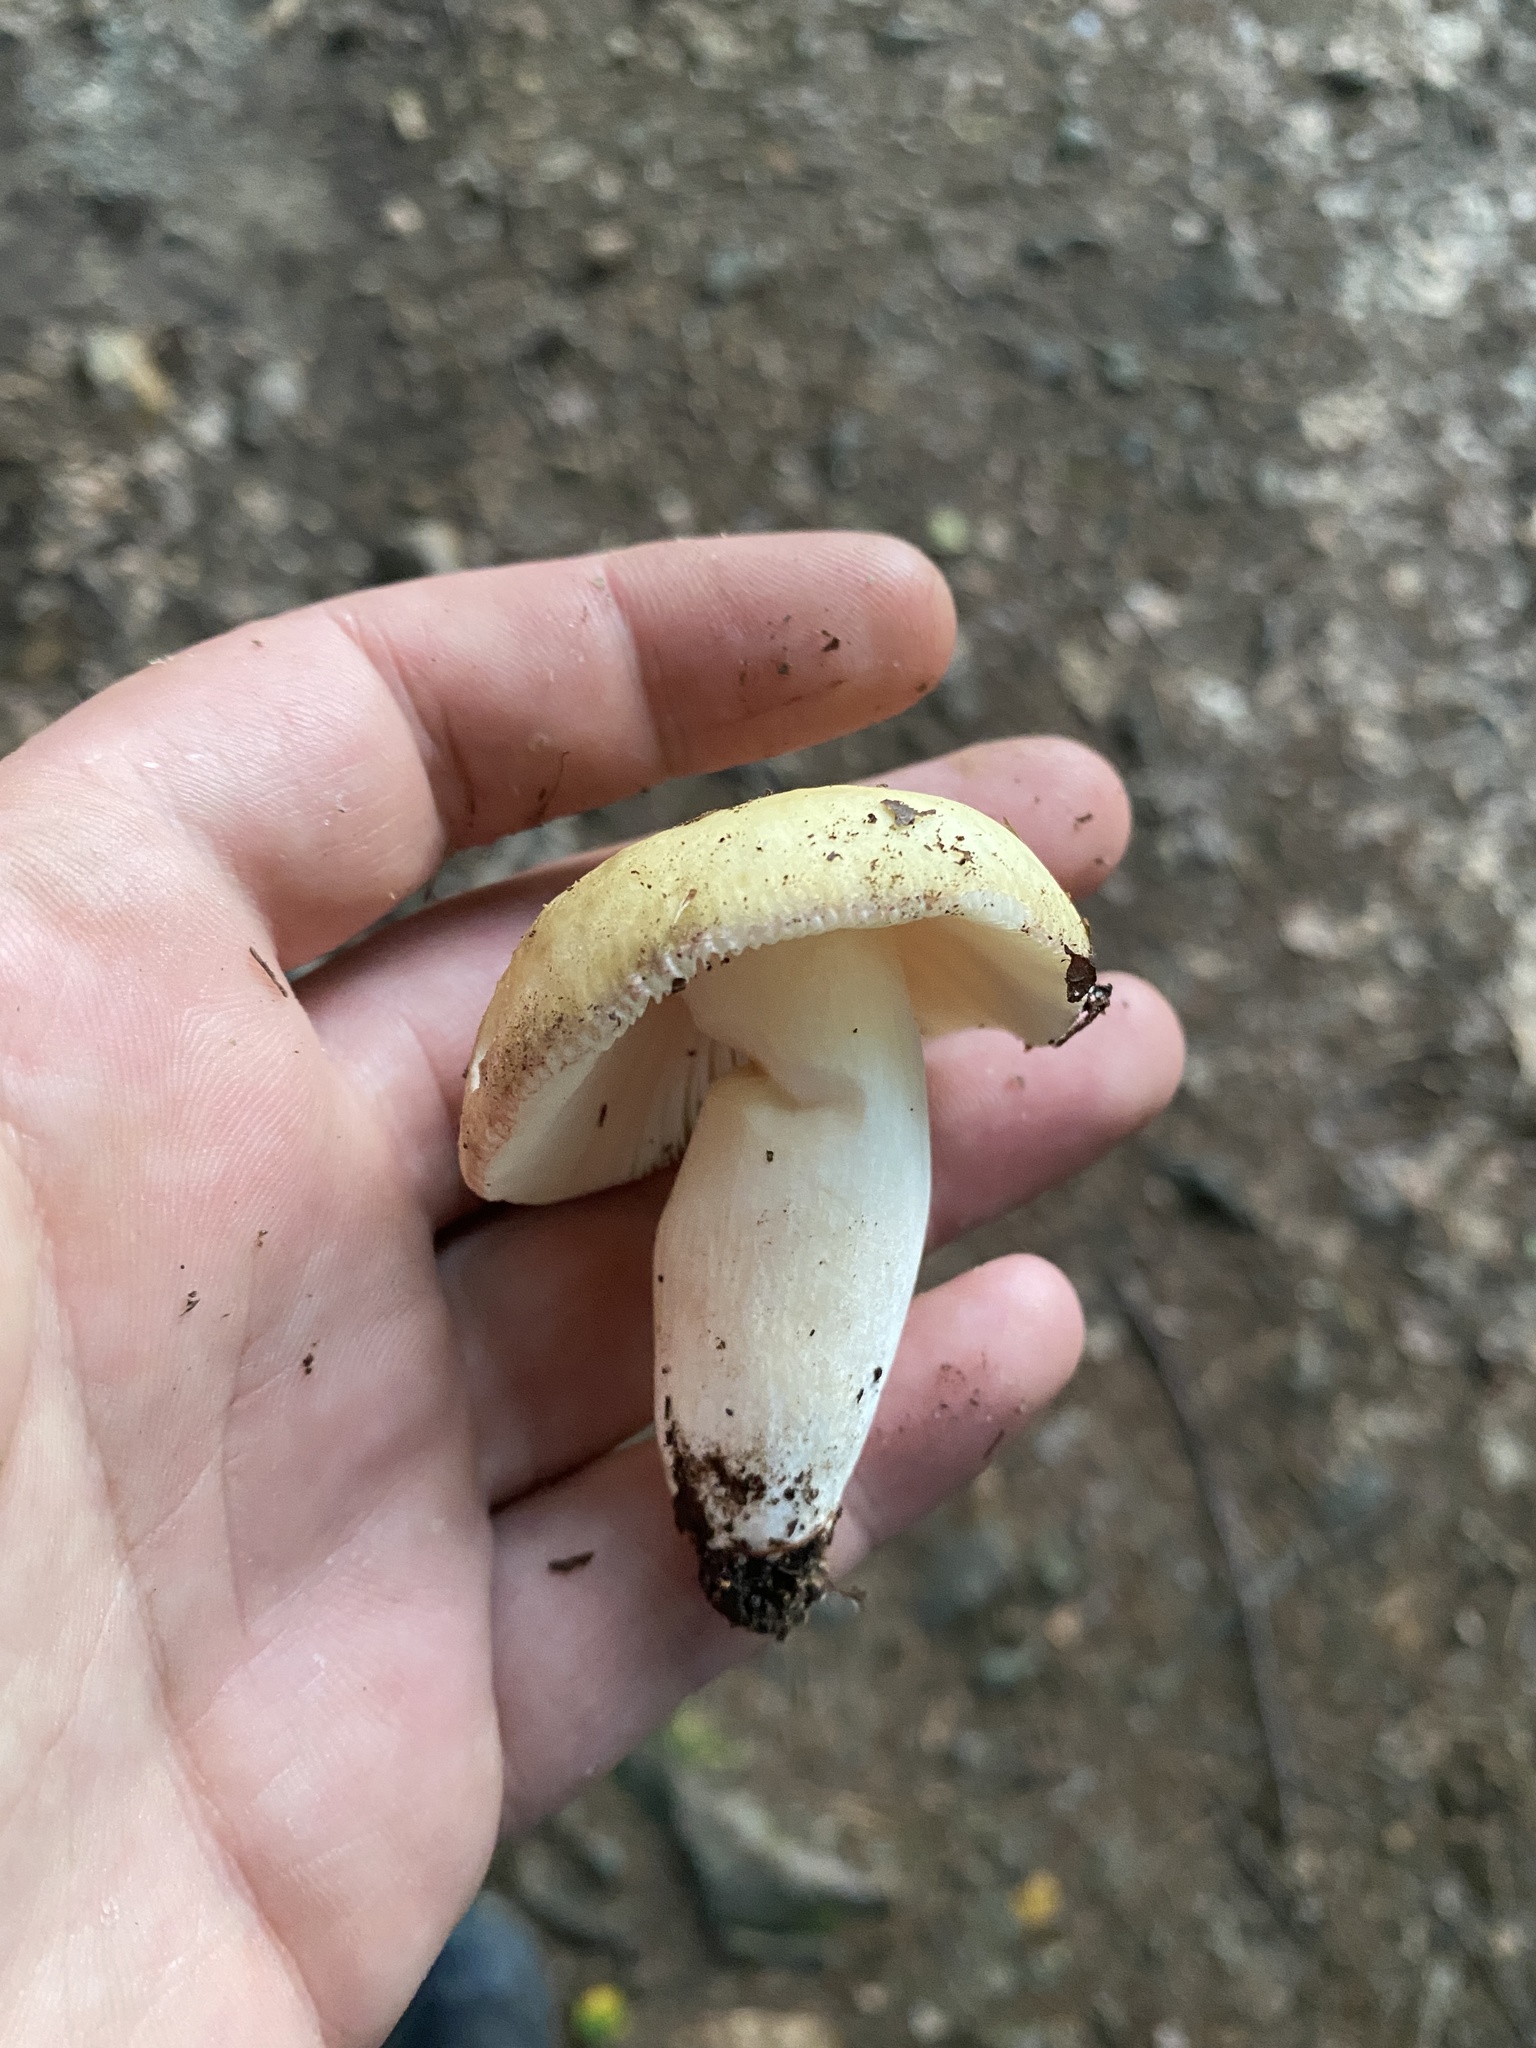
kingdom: Fungi
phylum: Basidiomycota
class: Agaricomycetes
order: Russulales
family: Russulaceae
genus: Russula
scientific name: Russula violeipes
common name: Velvet brittlegill
